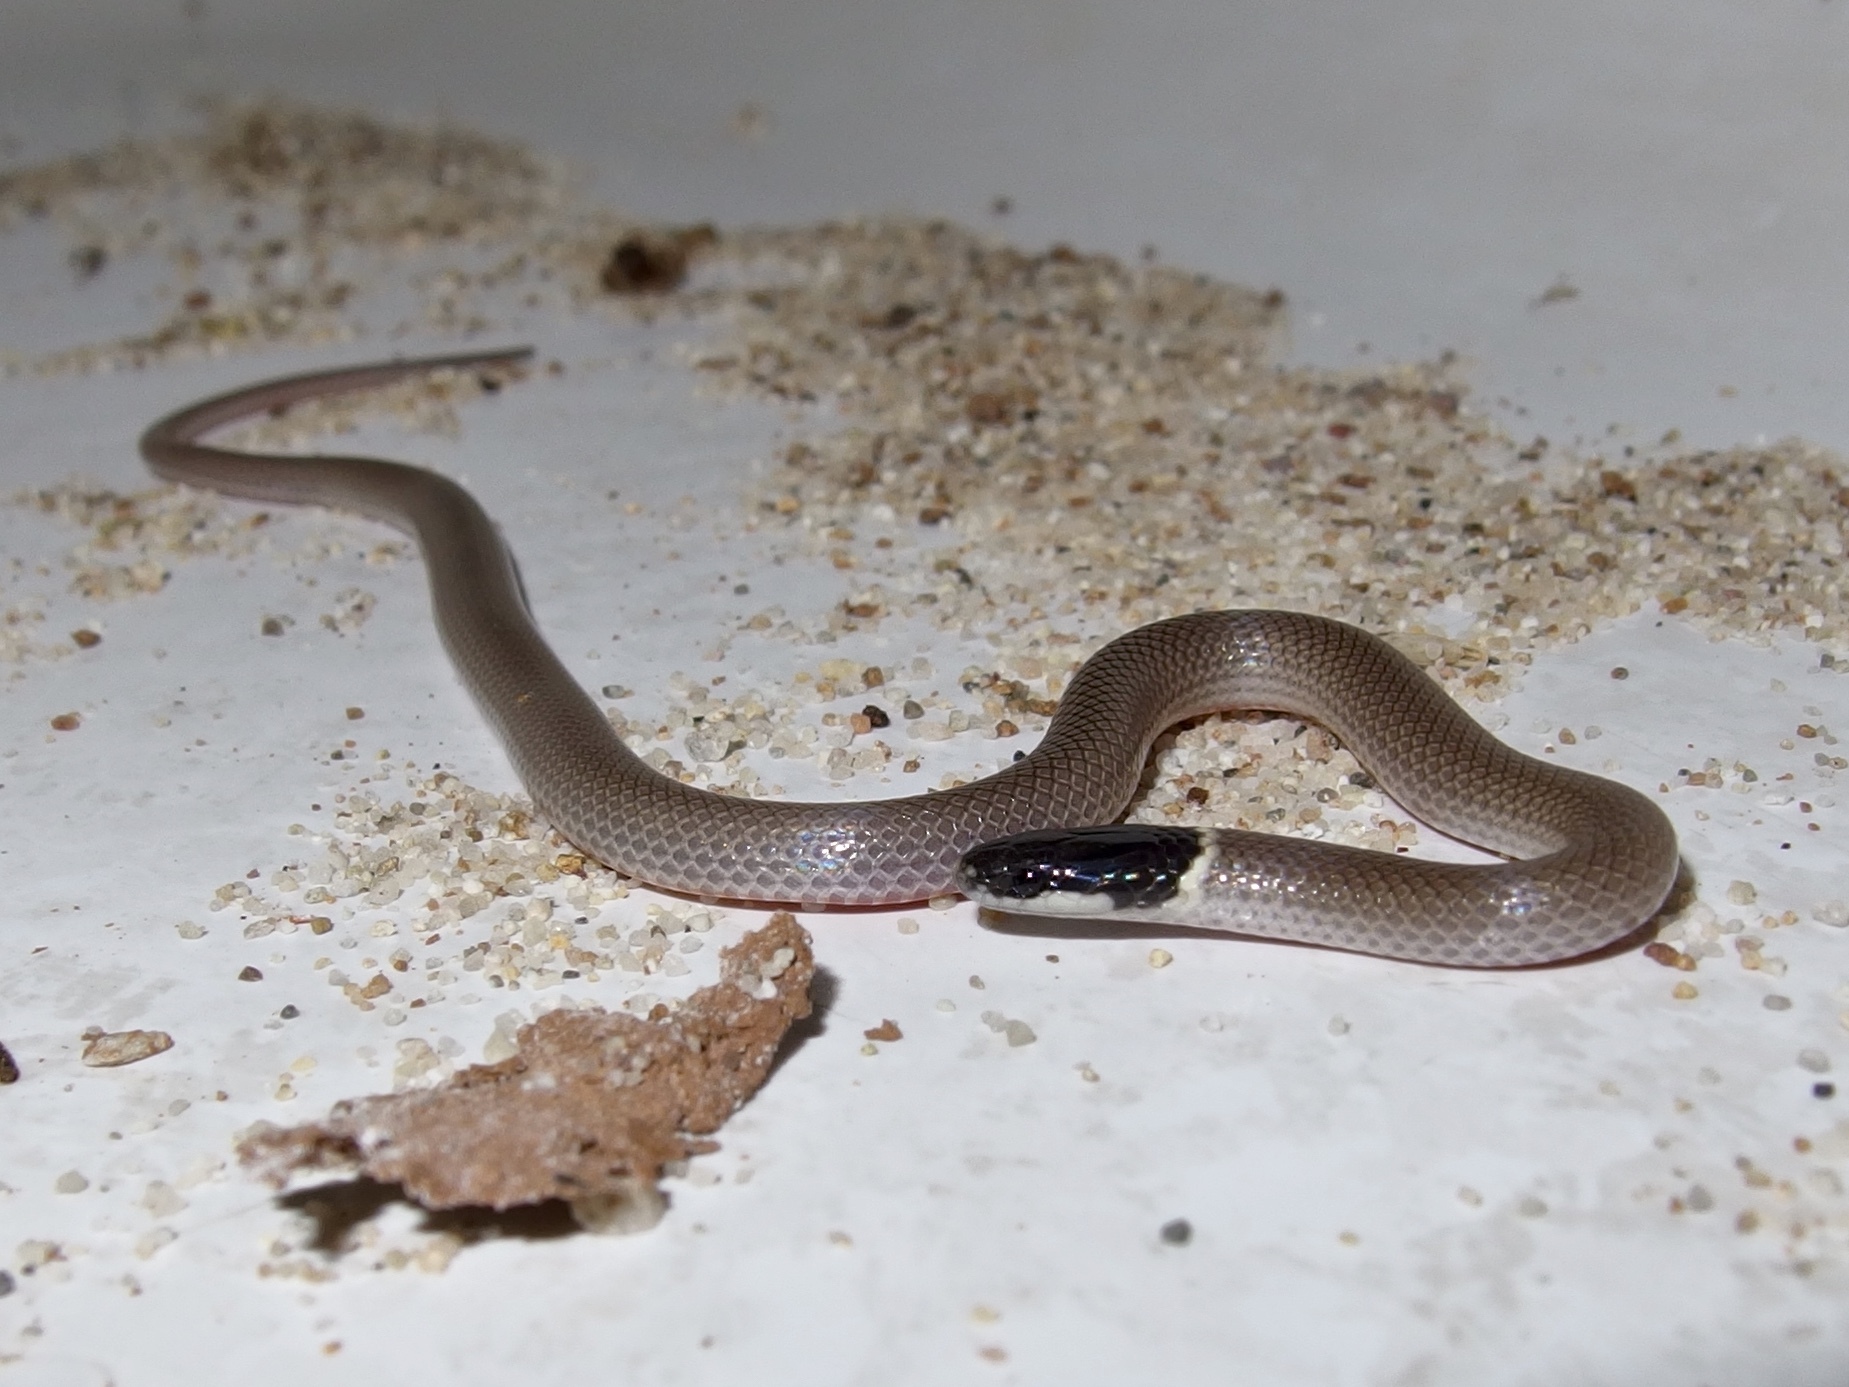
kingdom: Animalia
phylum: Chordata
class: Squamata
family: Colubridae
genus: Tantilla
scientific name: Tantilla yaquia
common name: Yaqui black-headed snake
